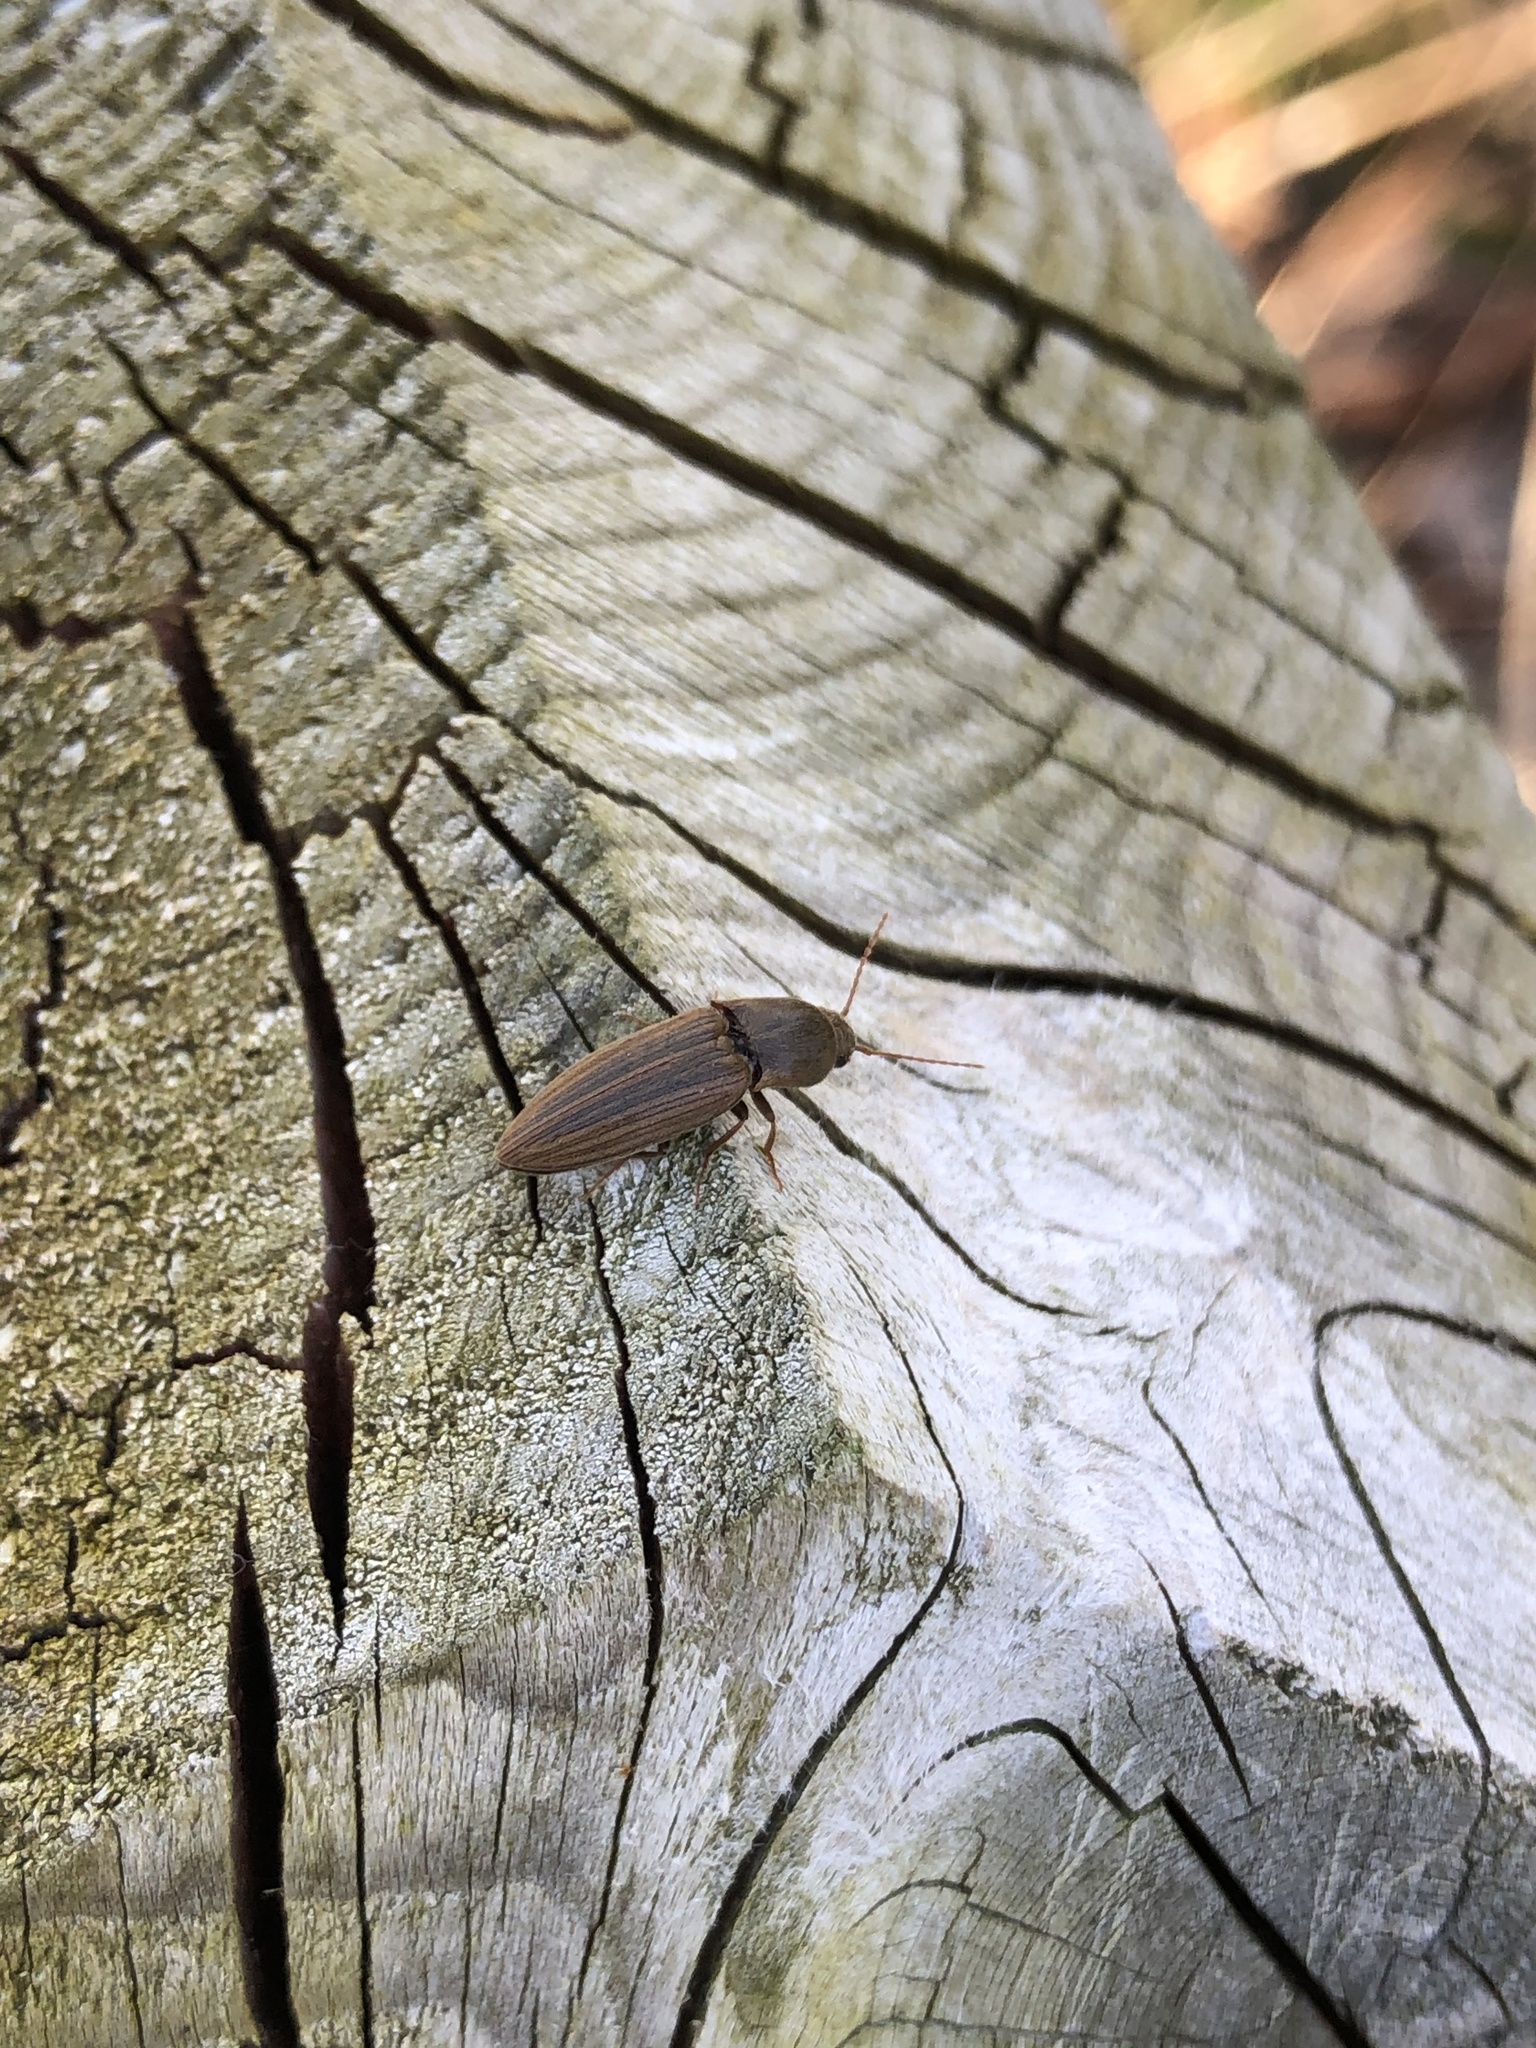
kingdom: Animalia
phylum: Arthropoda
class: Insecta
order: Coleoptera
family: Elateridae
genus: Agriotes
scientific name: Agriotes lineatus
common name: Lined click beetle
